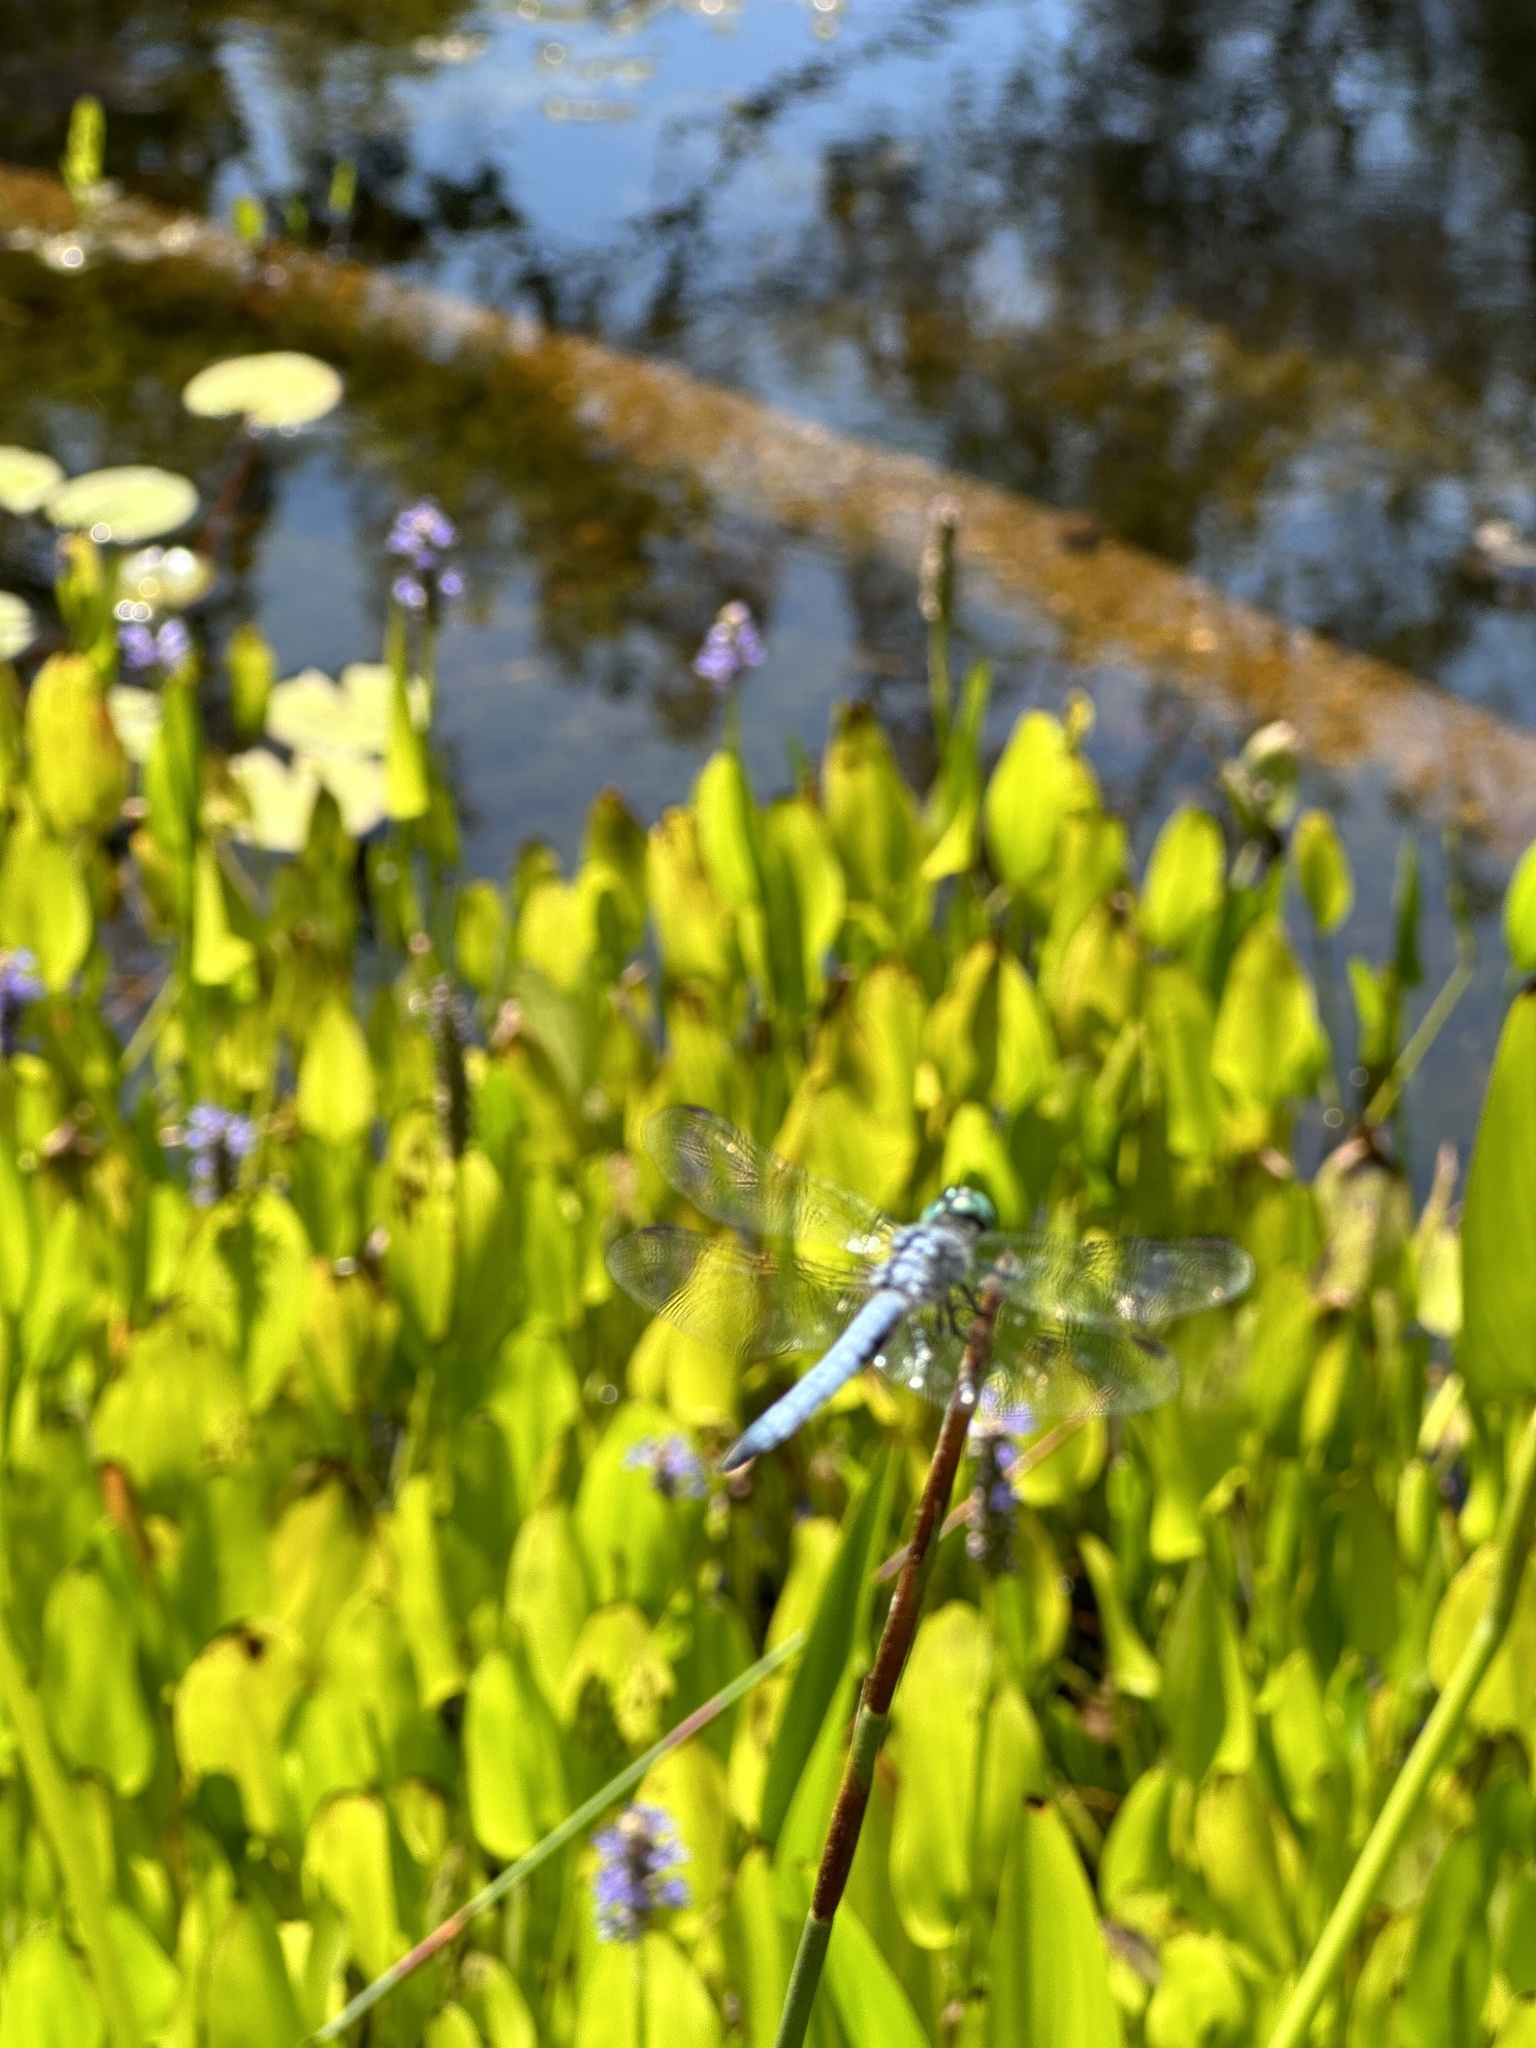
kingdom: Animalia
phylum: Arthropoda
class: Insecta
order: Odonata
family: Libellulidae
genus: Pachydiplax
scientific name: Pachydiplax longipennis
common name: Blue dasher
